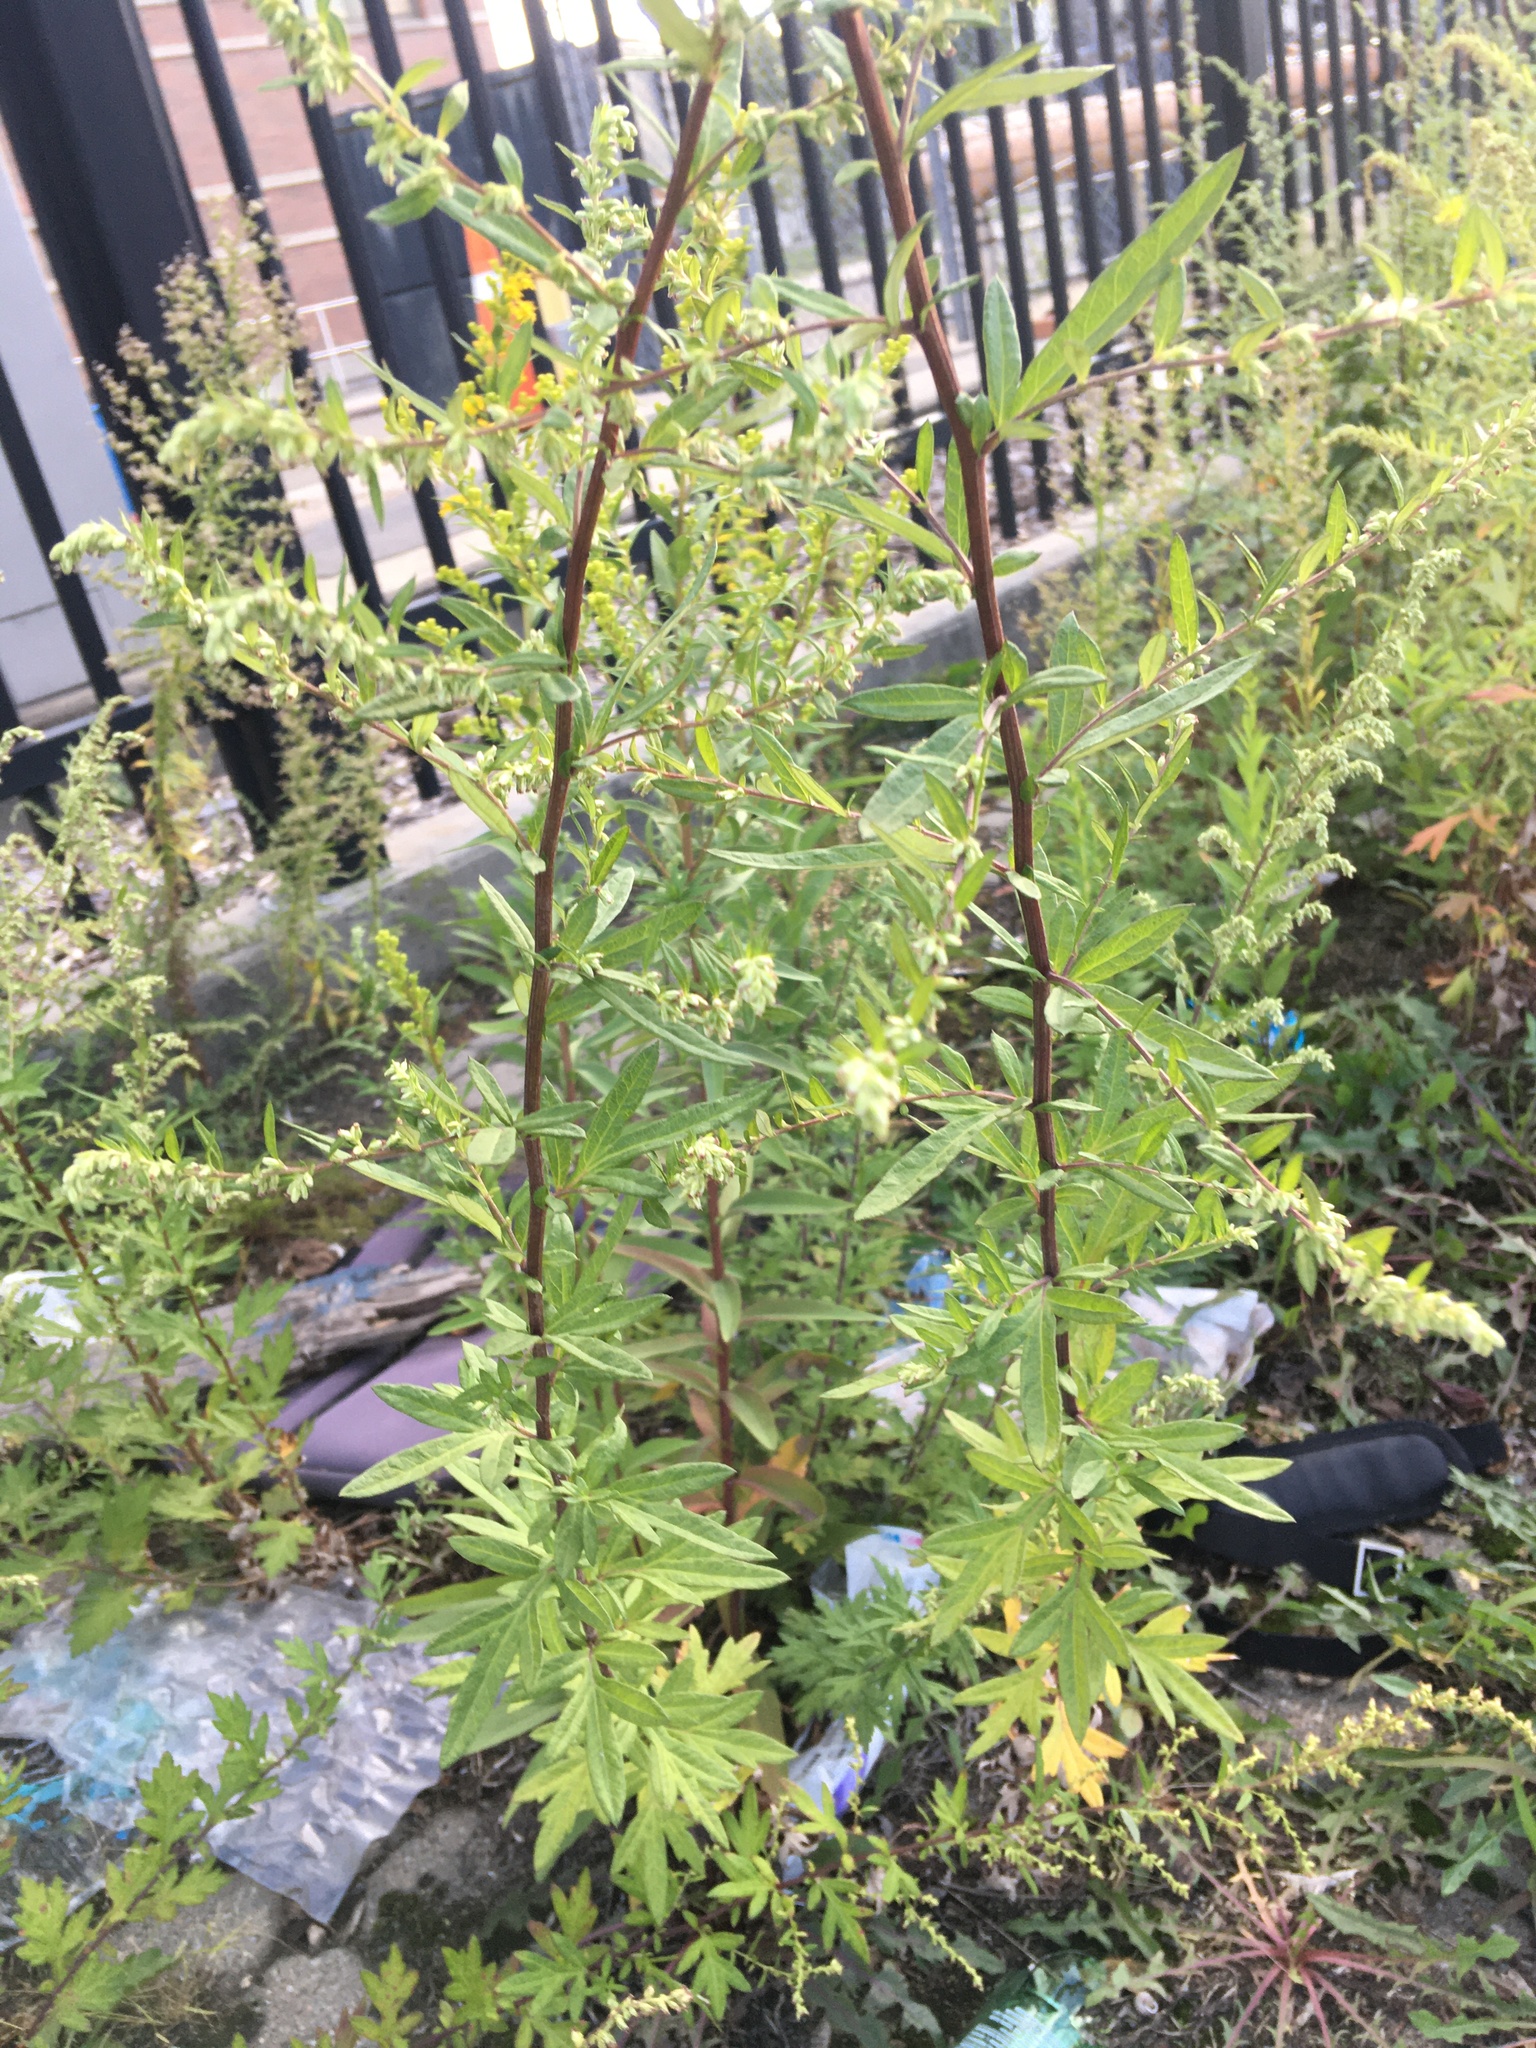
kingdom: Plantae
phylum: Tracheophyta
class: Magnoliopsida
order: Asterales
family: Asteraceae
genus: Artemisia
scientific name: Artemisia vulgaris
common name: Mugwort
